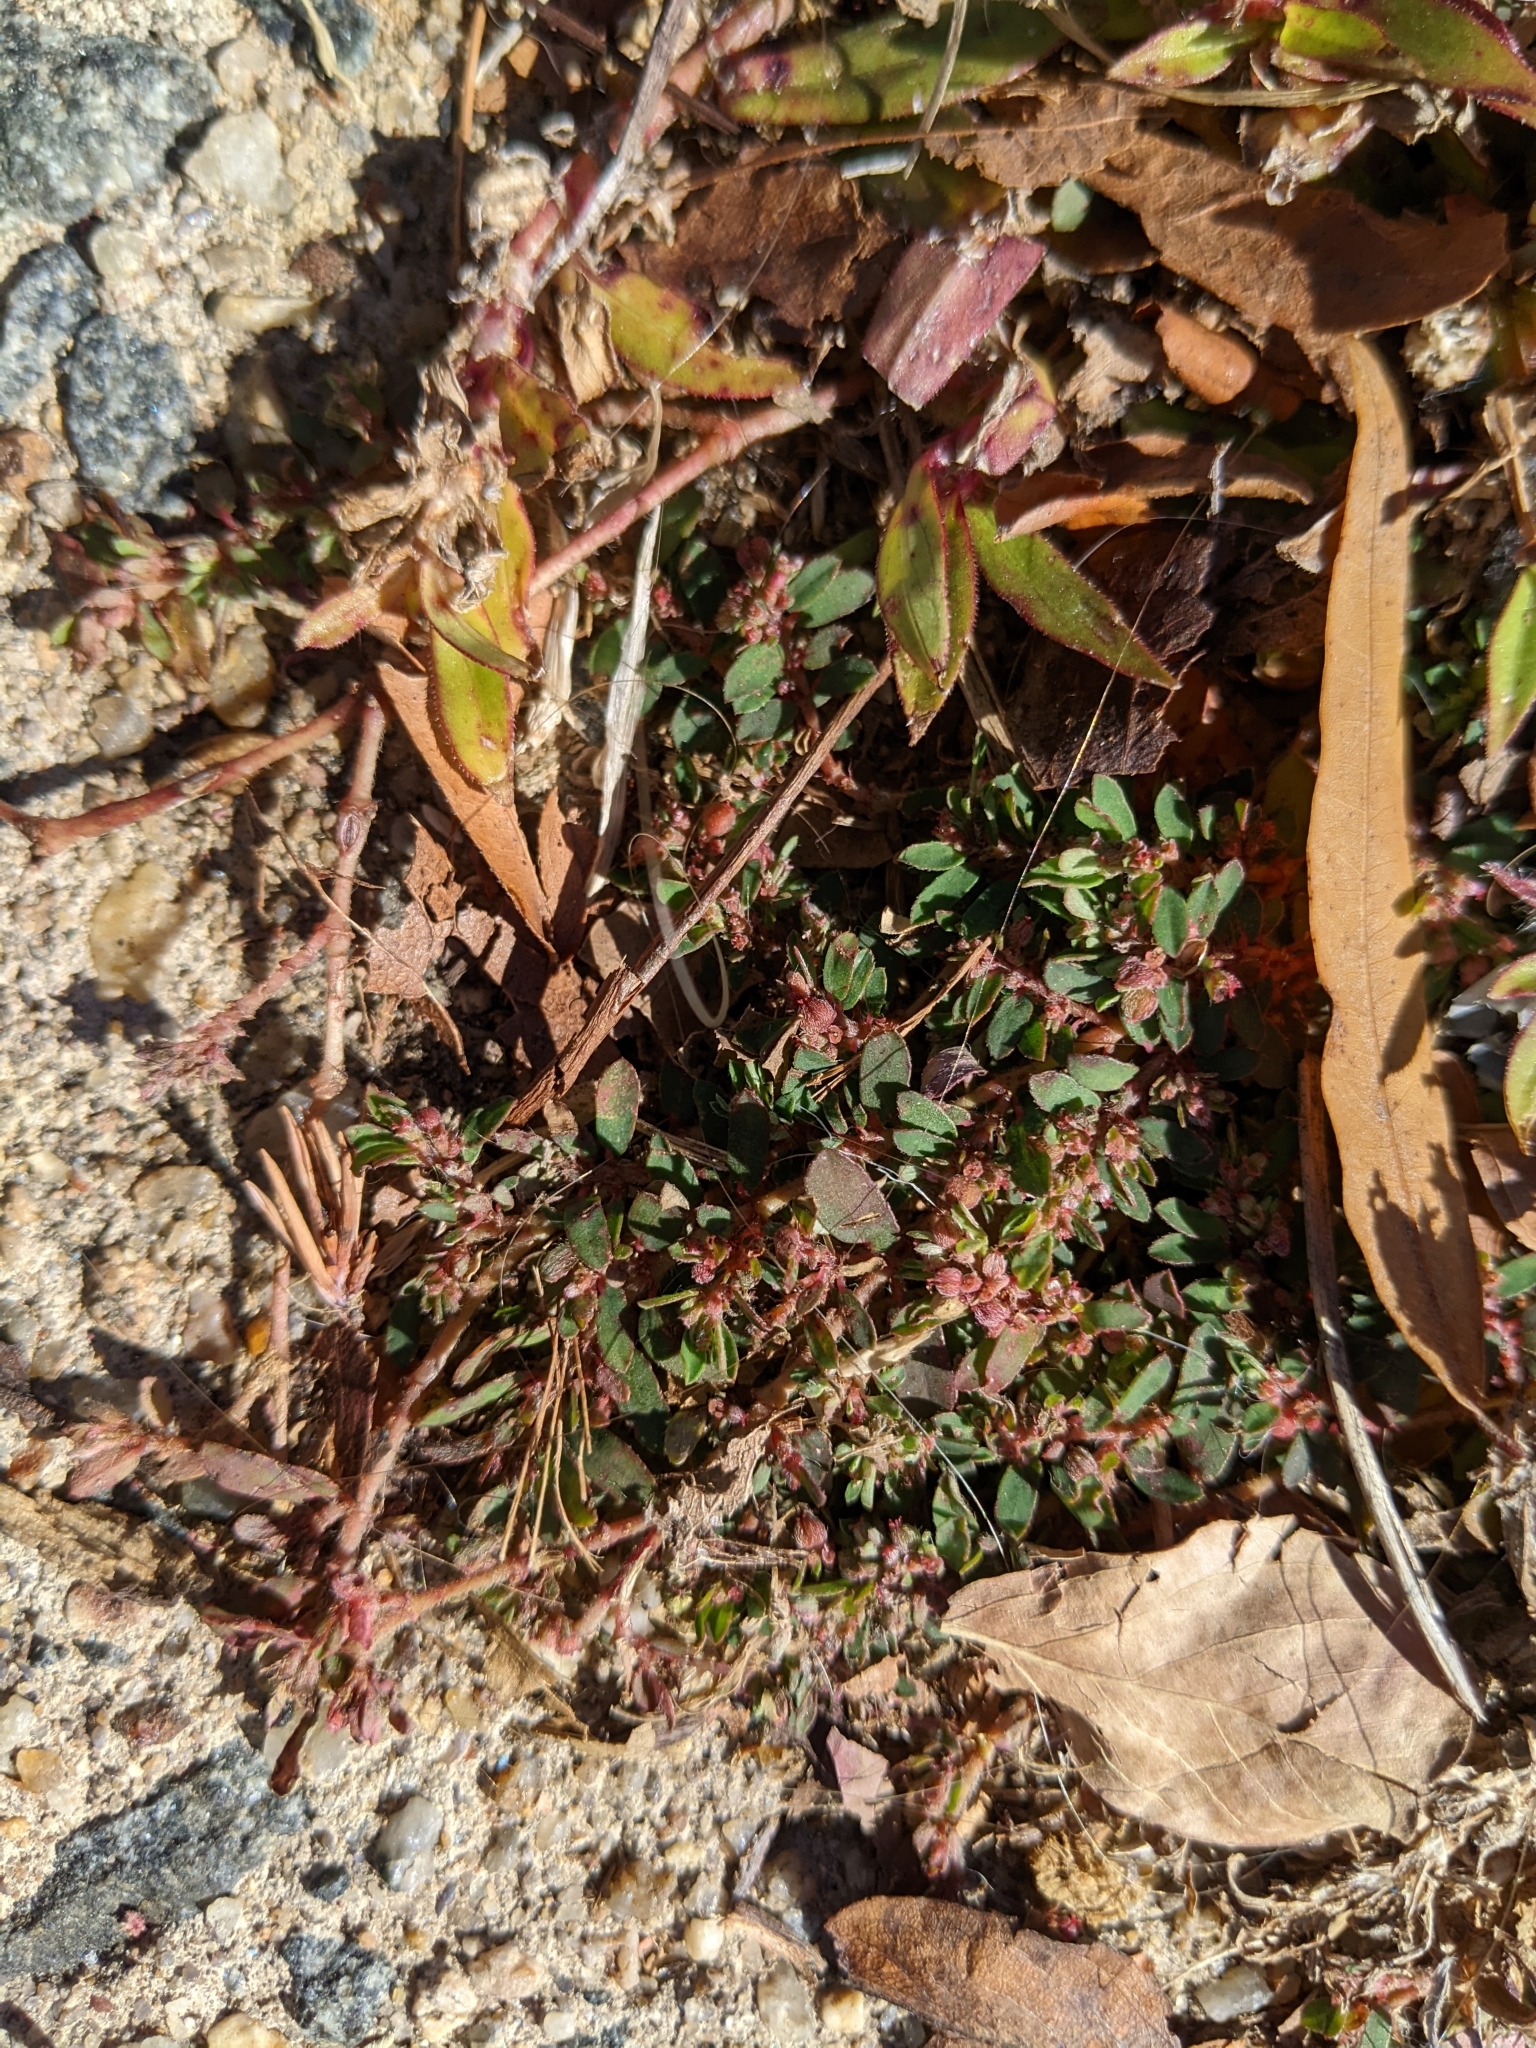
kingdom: Plantae
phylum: Tracheophyta
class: Magnoliopsida
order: Malpighiales
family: Euphorbiaceae
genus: Euphorbia
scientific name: Euphorbia maculata
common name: Spotted spurge
